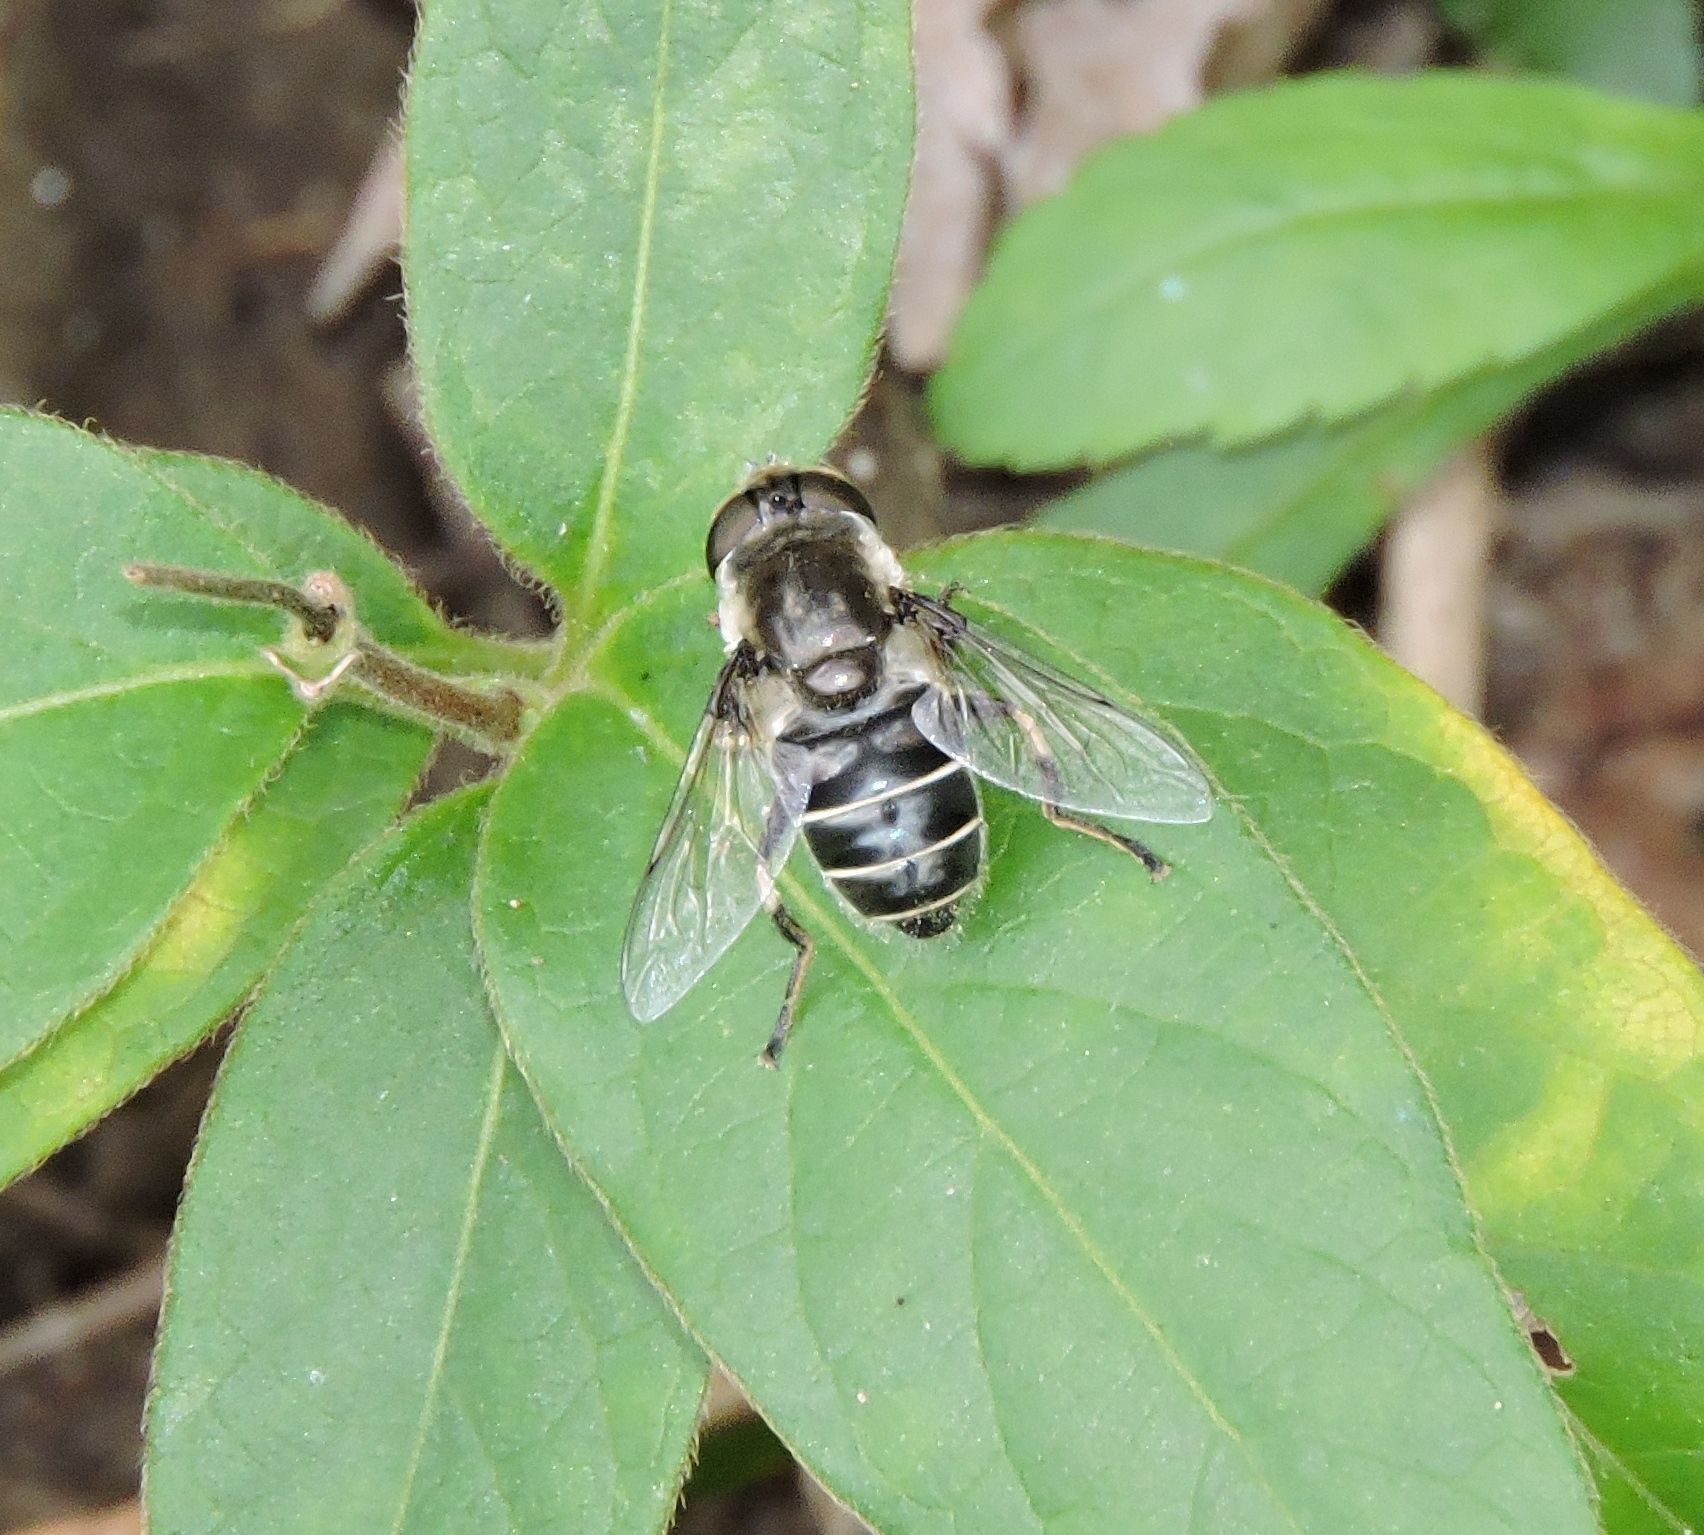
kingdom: Animalia
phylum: Arthropoda
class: Insecta
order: Diptera
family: Syrphidae
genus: Eristalis
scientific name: Eristalis dimidiata
